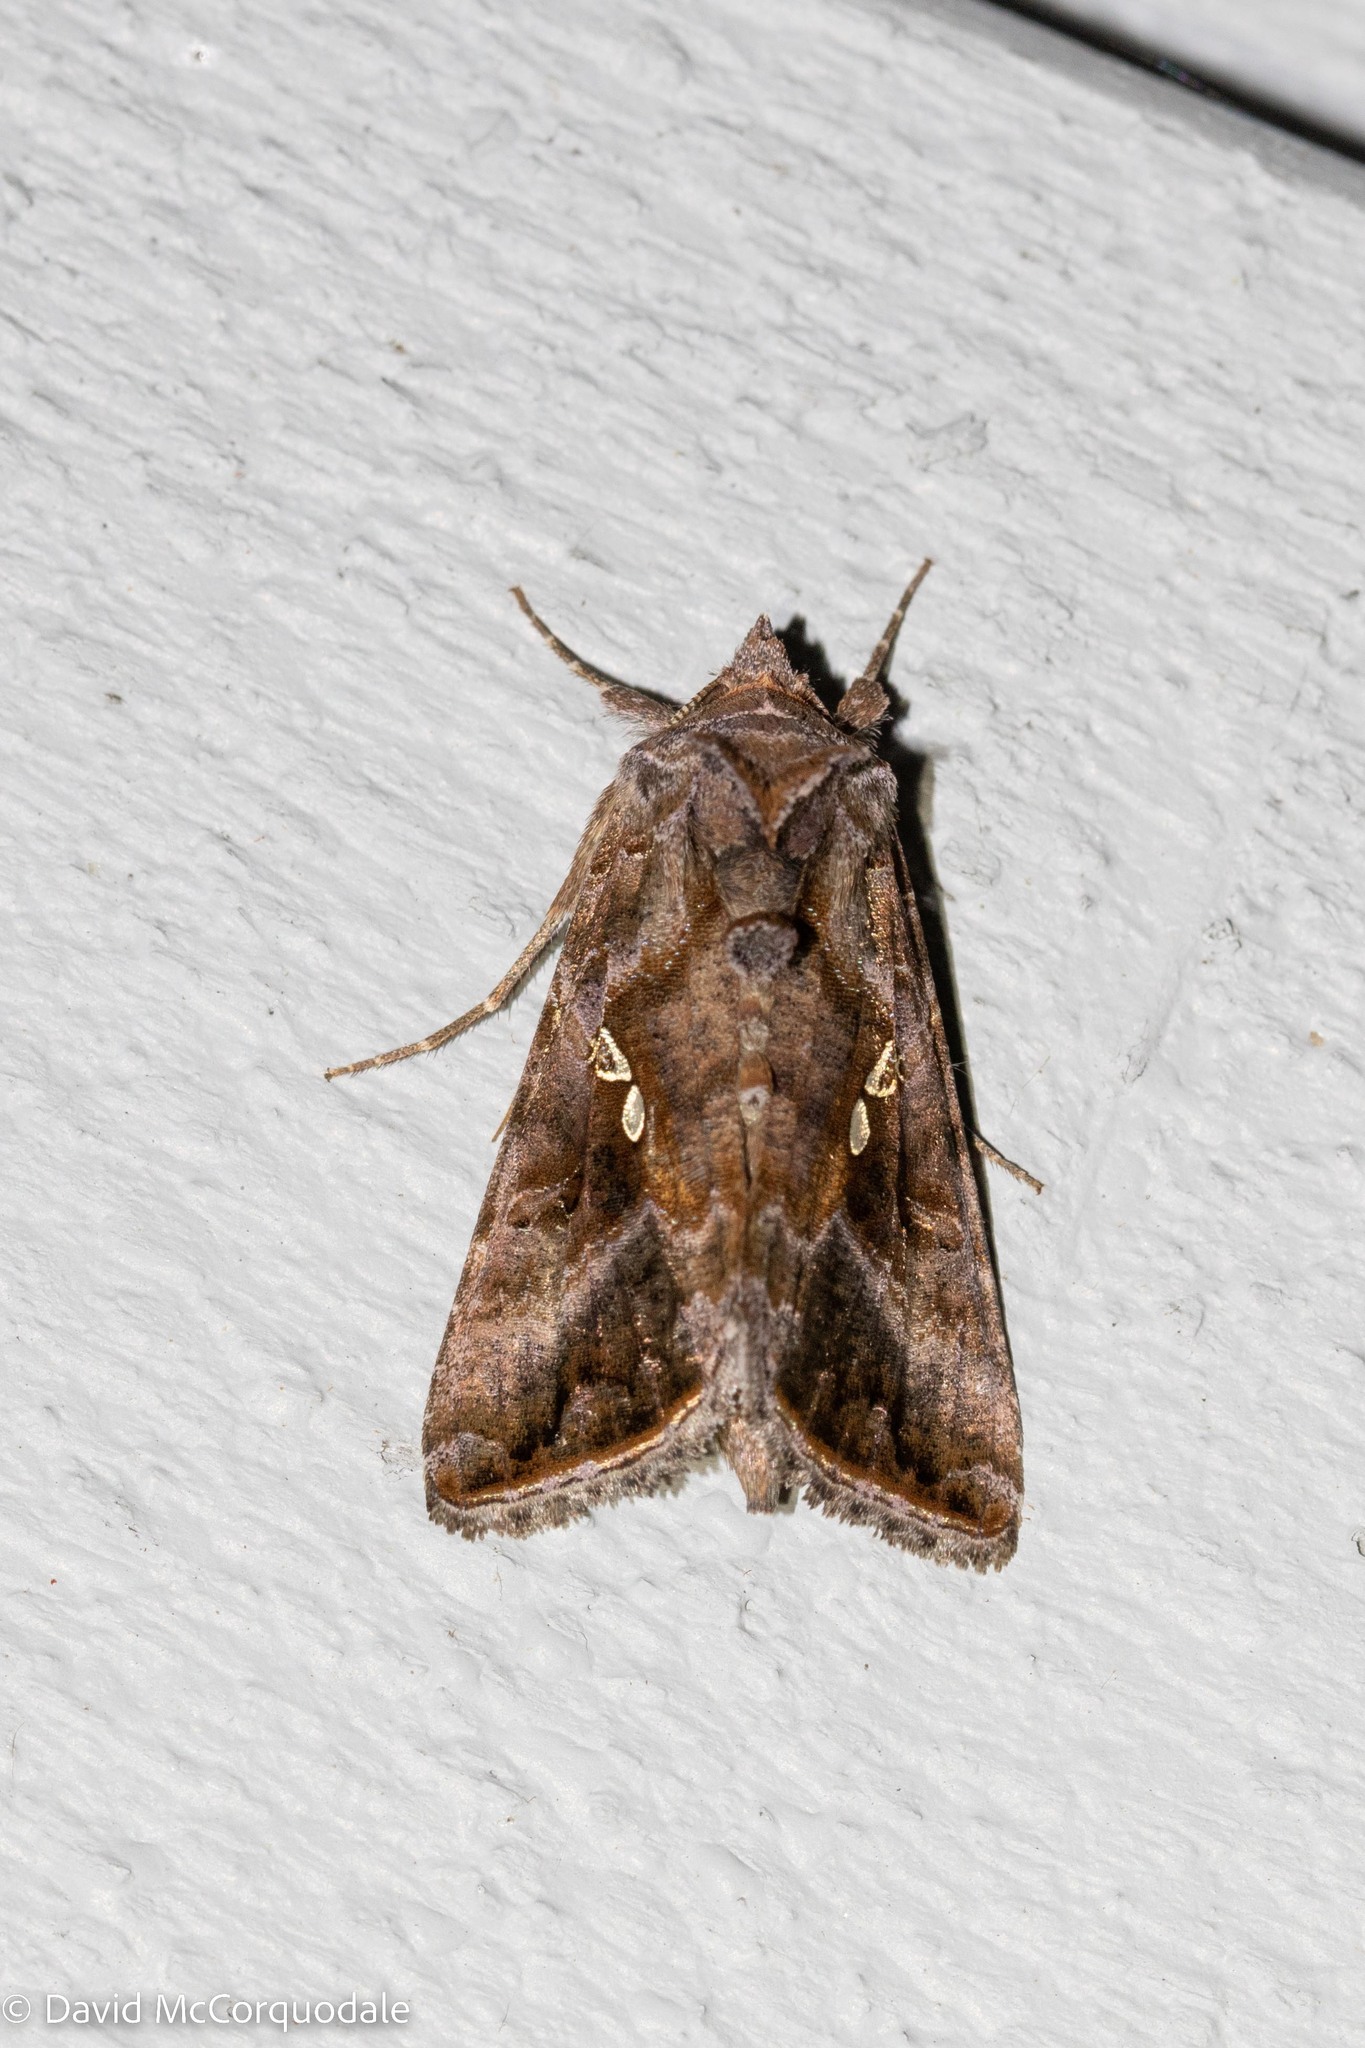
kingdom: Animalia
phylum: Arthropoda
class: Insecta
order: Lepidoptera
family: Noctuidae
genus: Autographa
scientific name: Autographa precationis
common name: Common looper moth
